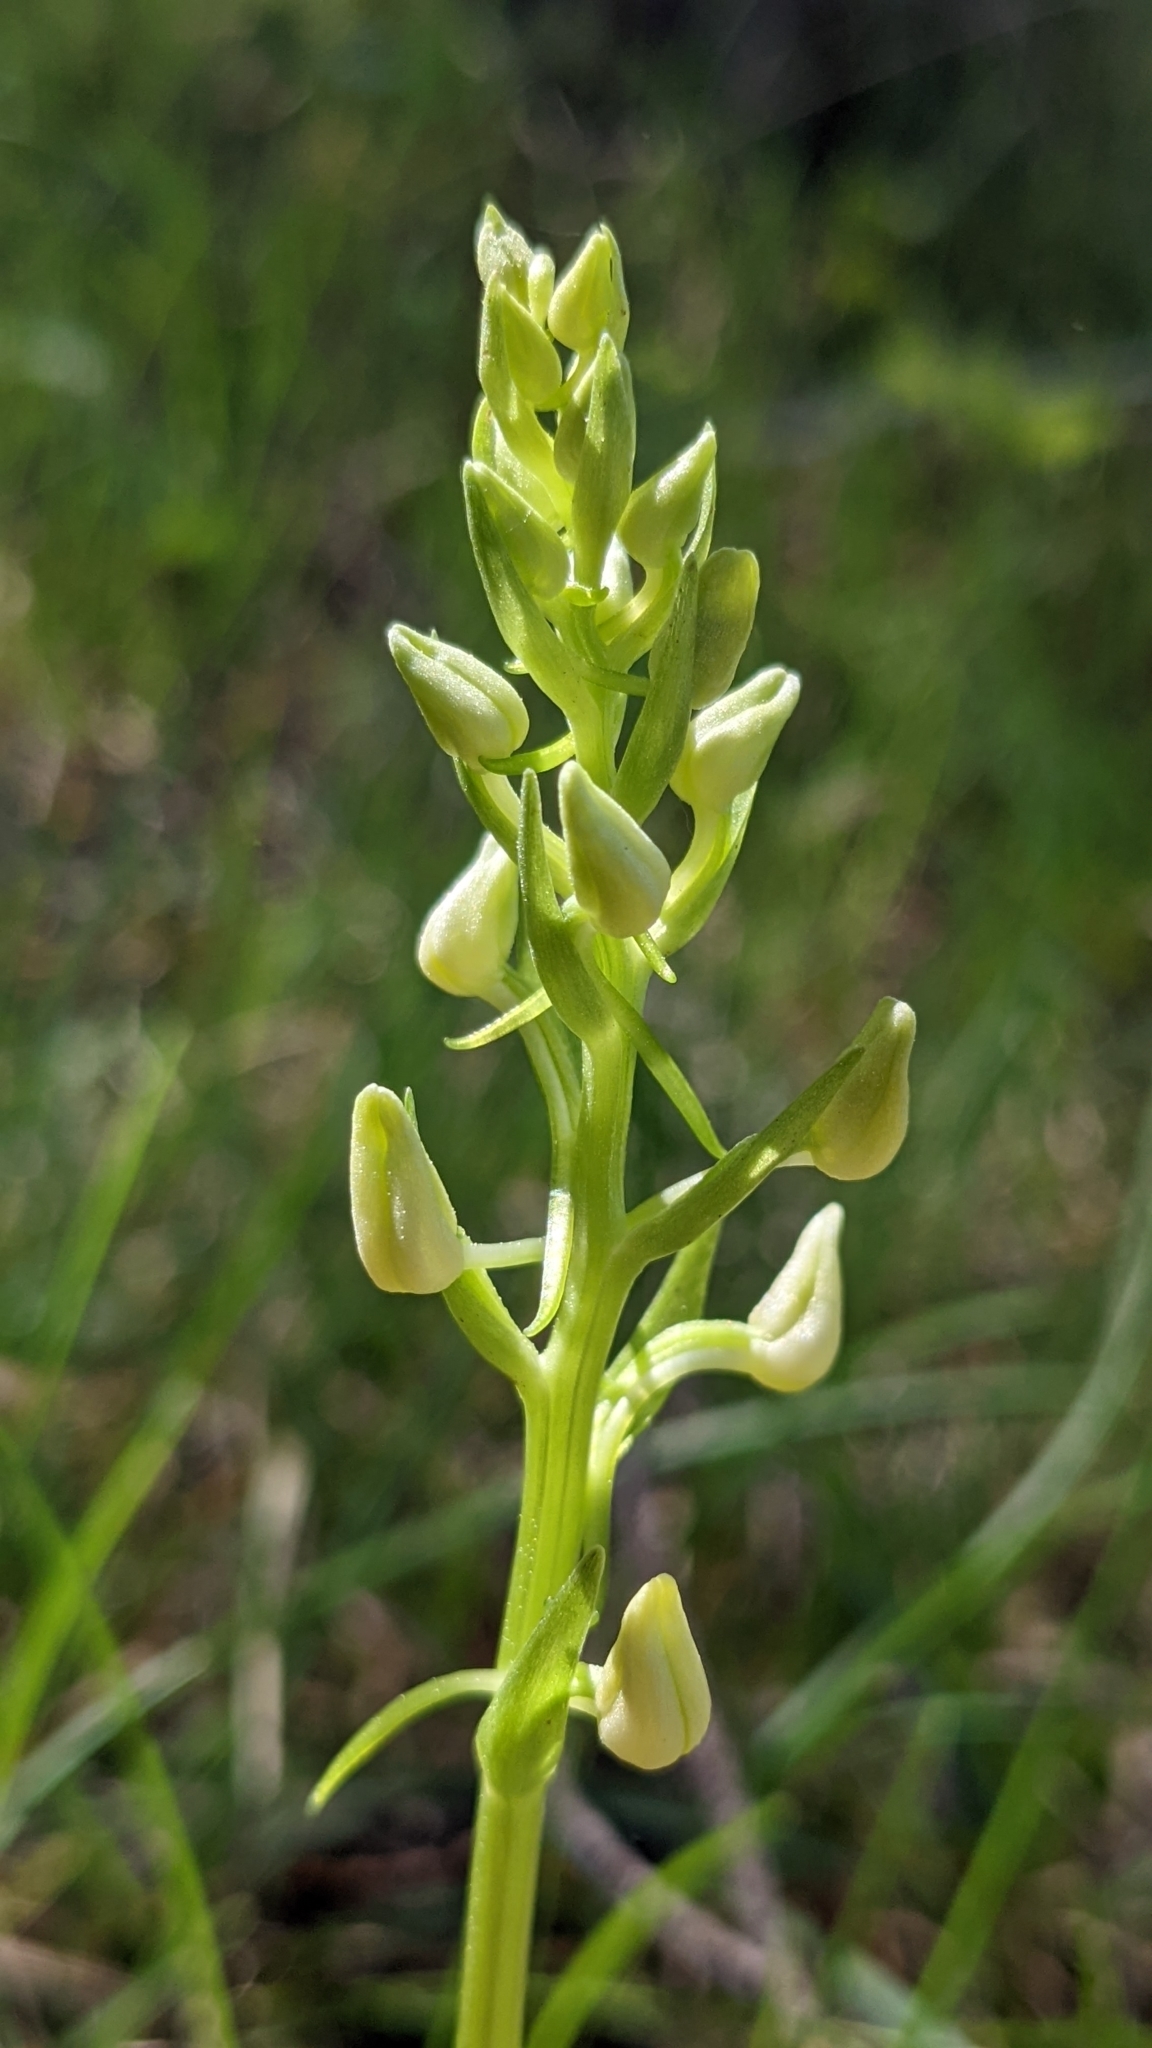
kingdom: Plantae
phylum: Tracheophyta
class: Liliopsida
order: Asparagales
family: Orchidaceae
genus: Platanthera
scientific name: Platanthera bifolia
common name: Lesser butterfly-orchid
